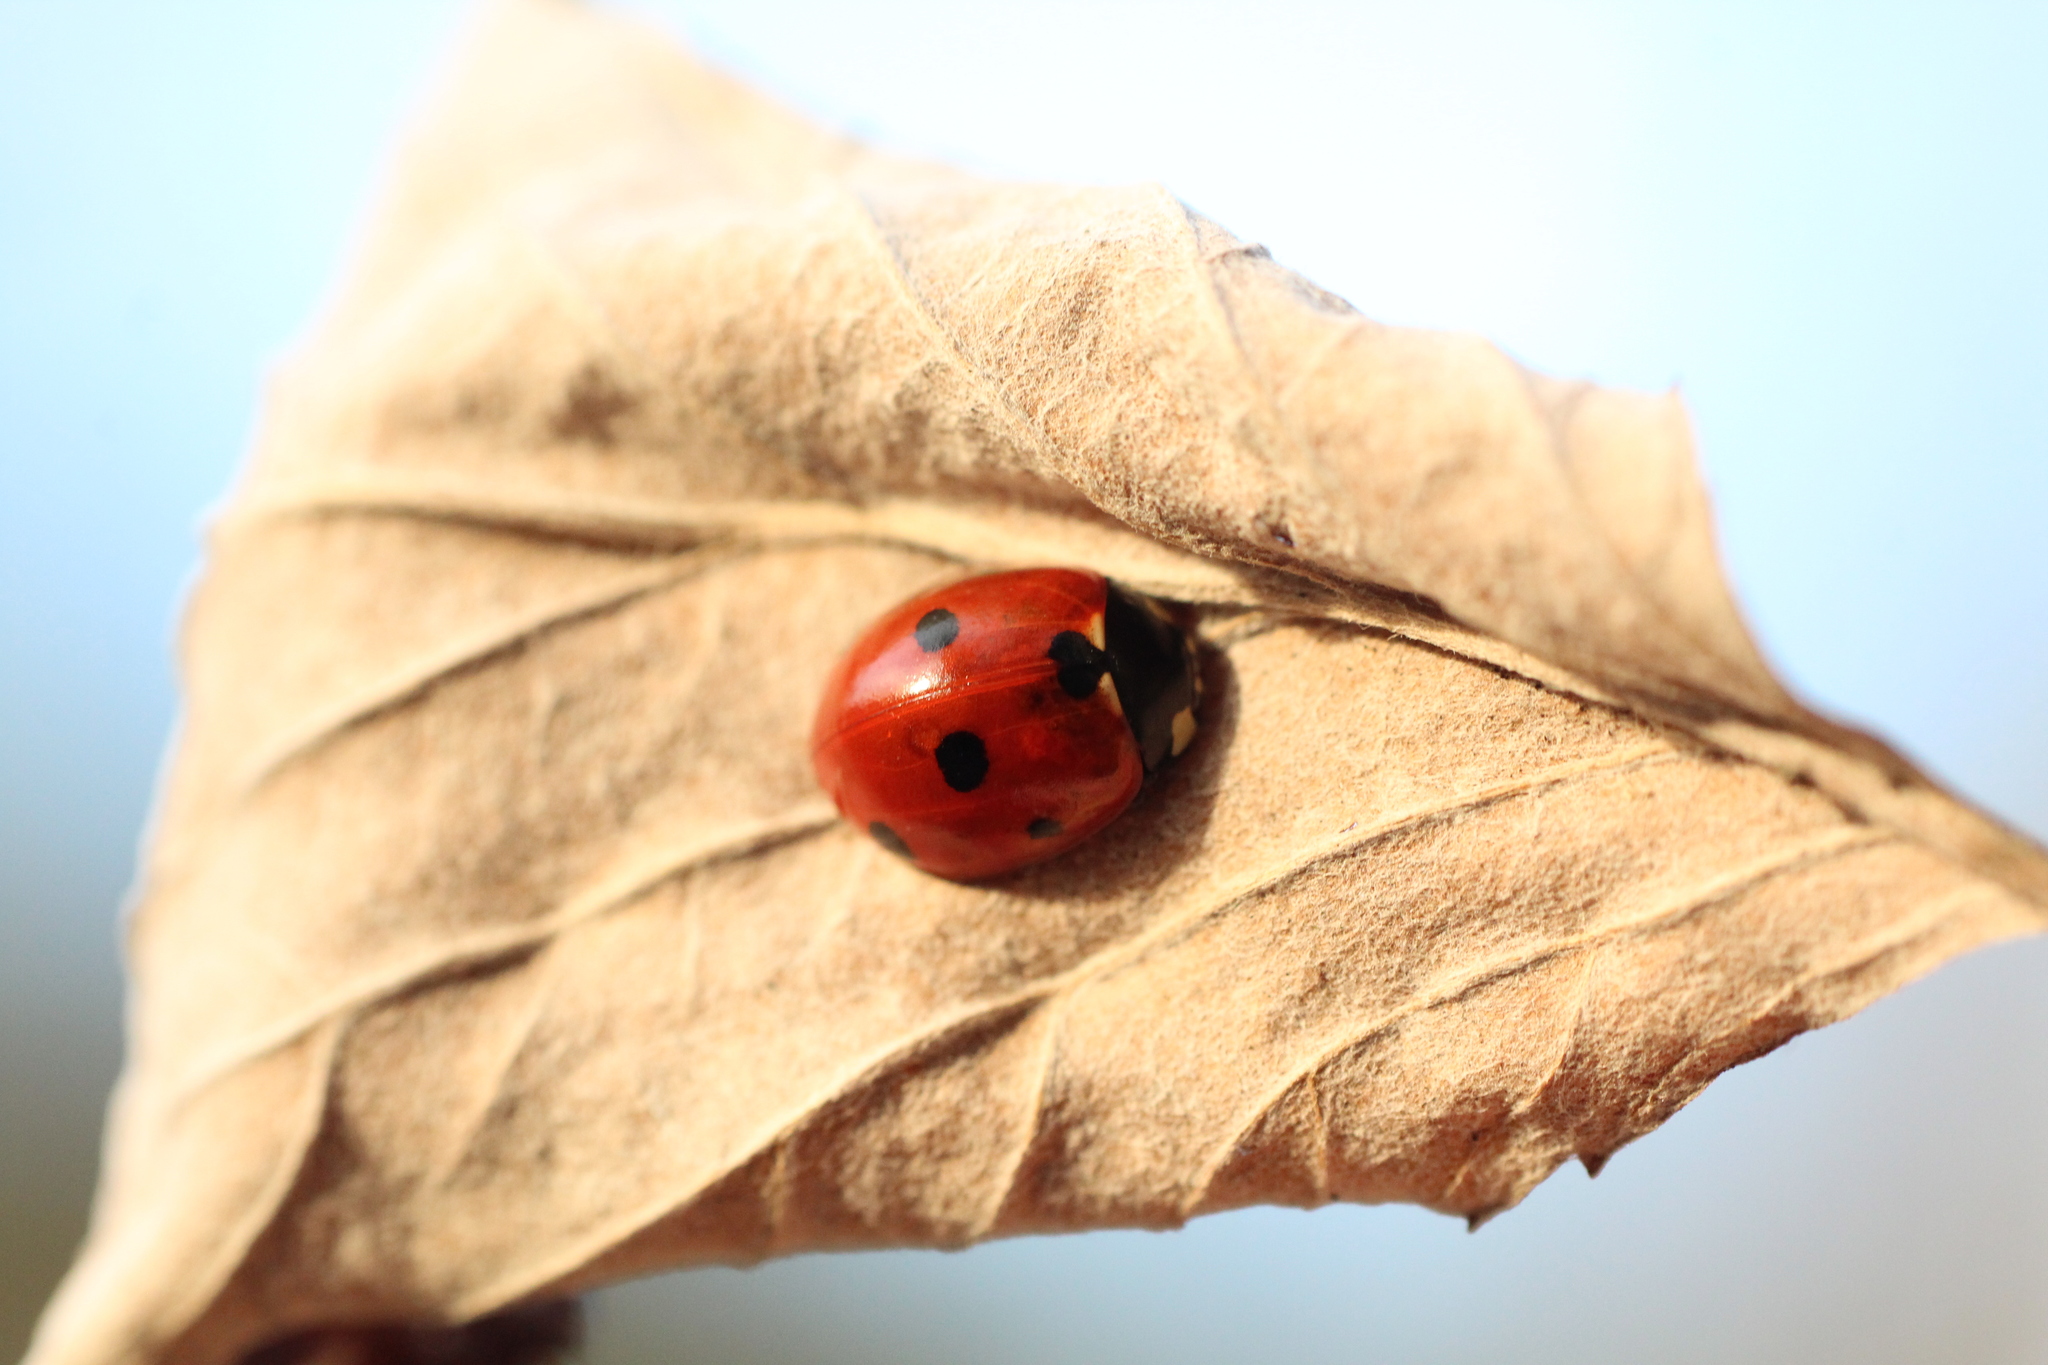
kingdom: Animalia
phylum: Arthropoda
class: Insecta
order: Coleoptera
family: Coccinellidae
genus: Coccinella
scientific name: Coccinella septempunctata
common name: Sevenspotted lady beetle
